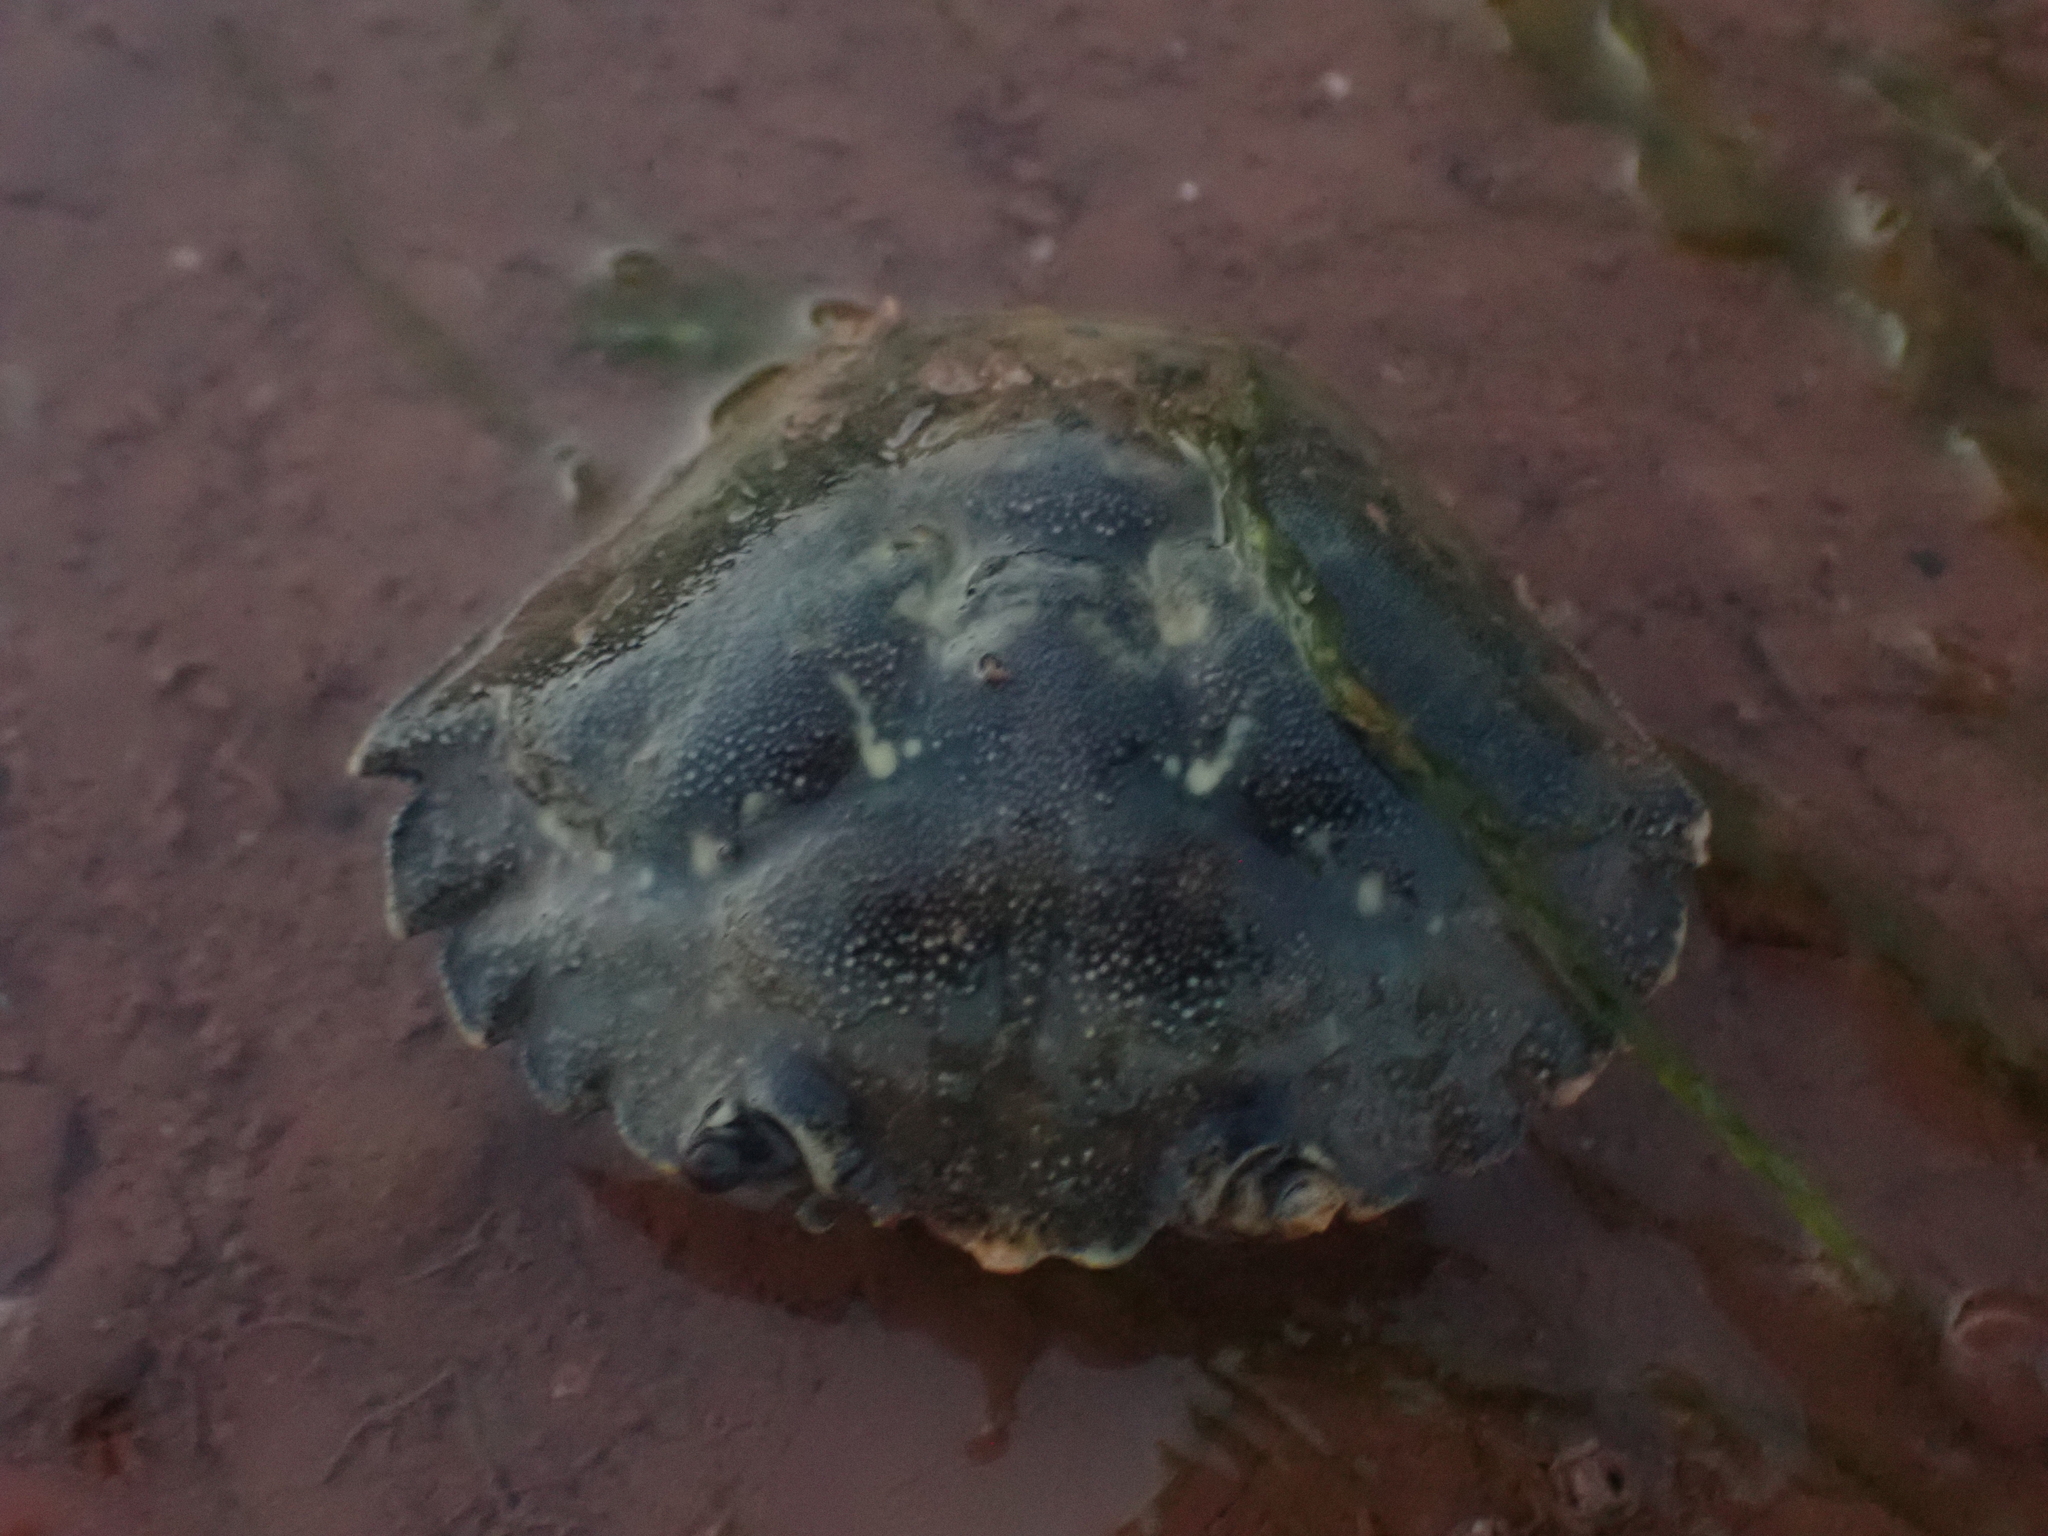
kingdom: Animalia
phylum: Arthropoda
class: Malacostraca
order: Decapoda
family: Carcinidae
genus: Carcinus
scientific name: Carcinus maenas
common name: European green crab
